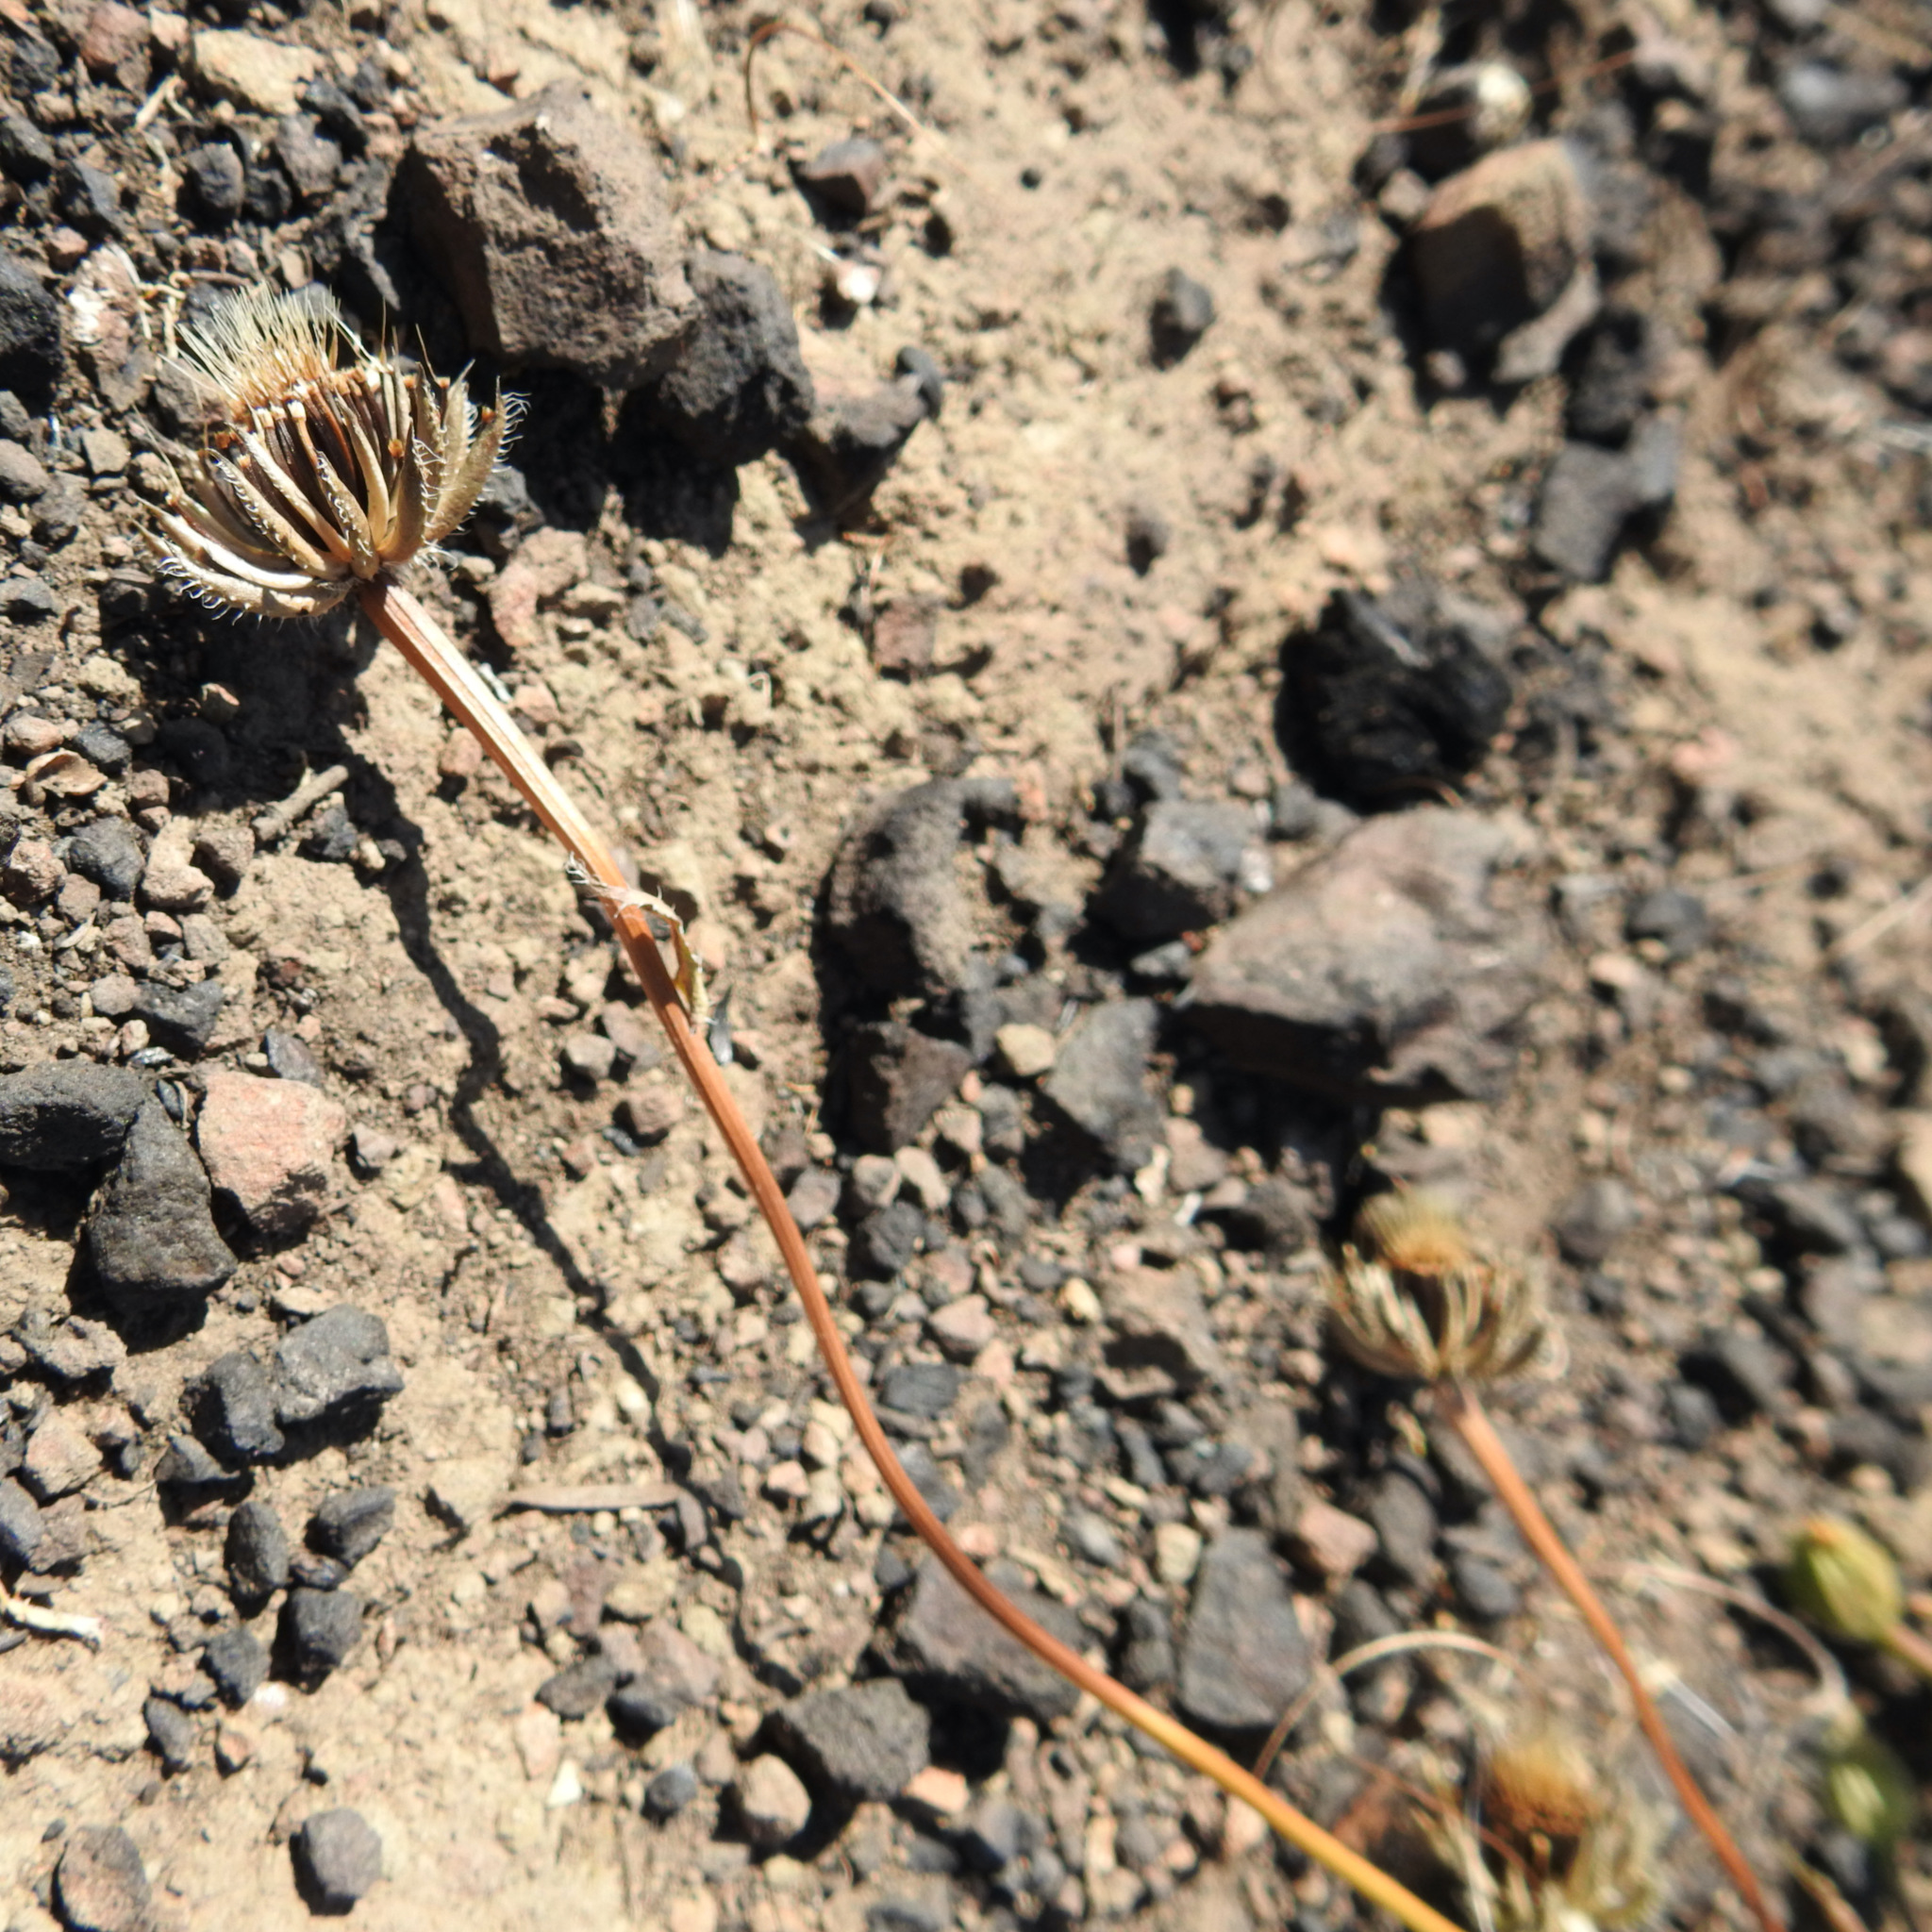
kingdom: Plantae
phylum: Tracheophyta
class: Magnoliopsida
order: Asterales
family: Asteraceae
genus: Hedypnois
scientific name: Hedypnois rhagadioloides
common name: Cretan weed
